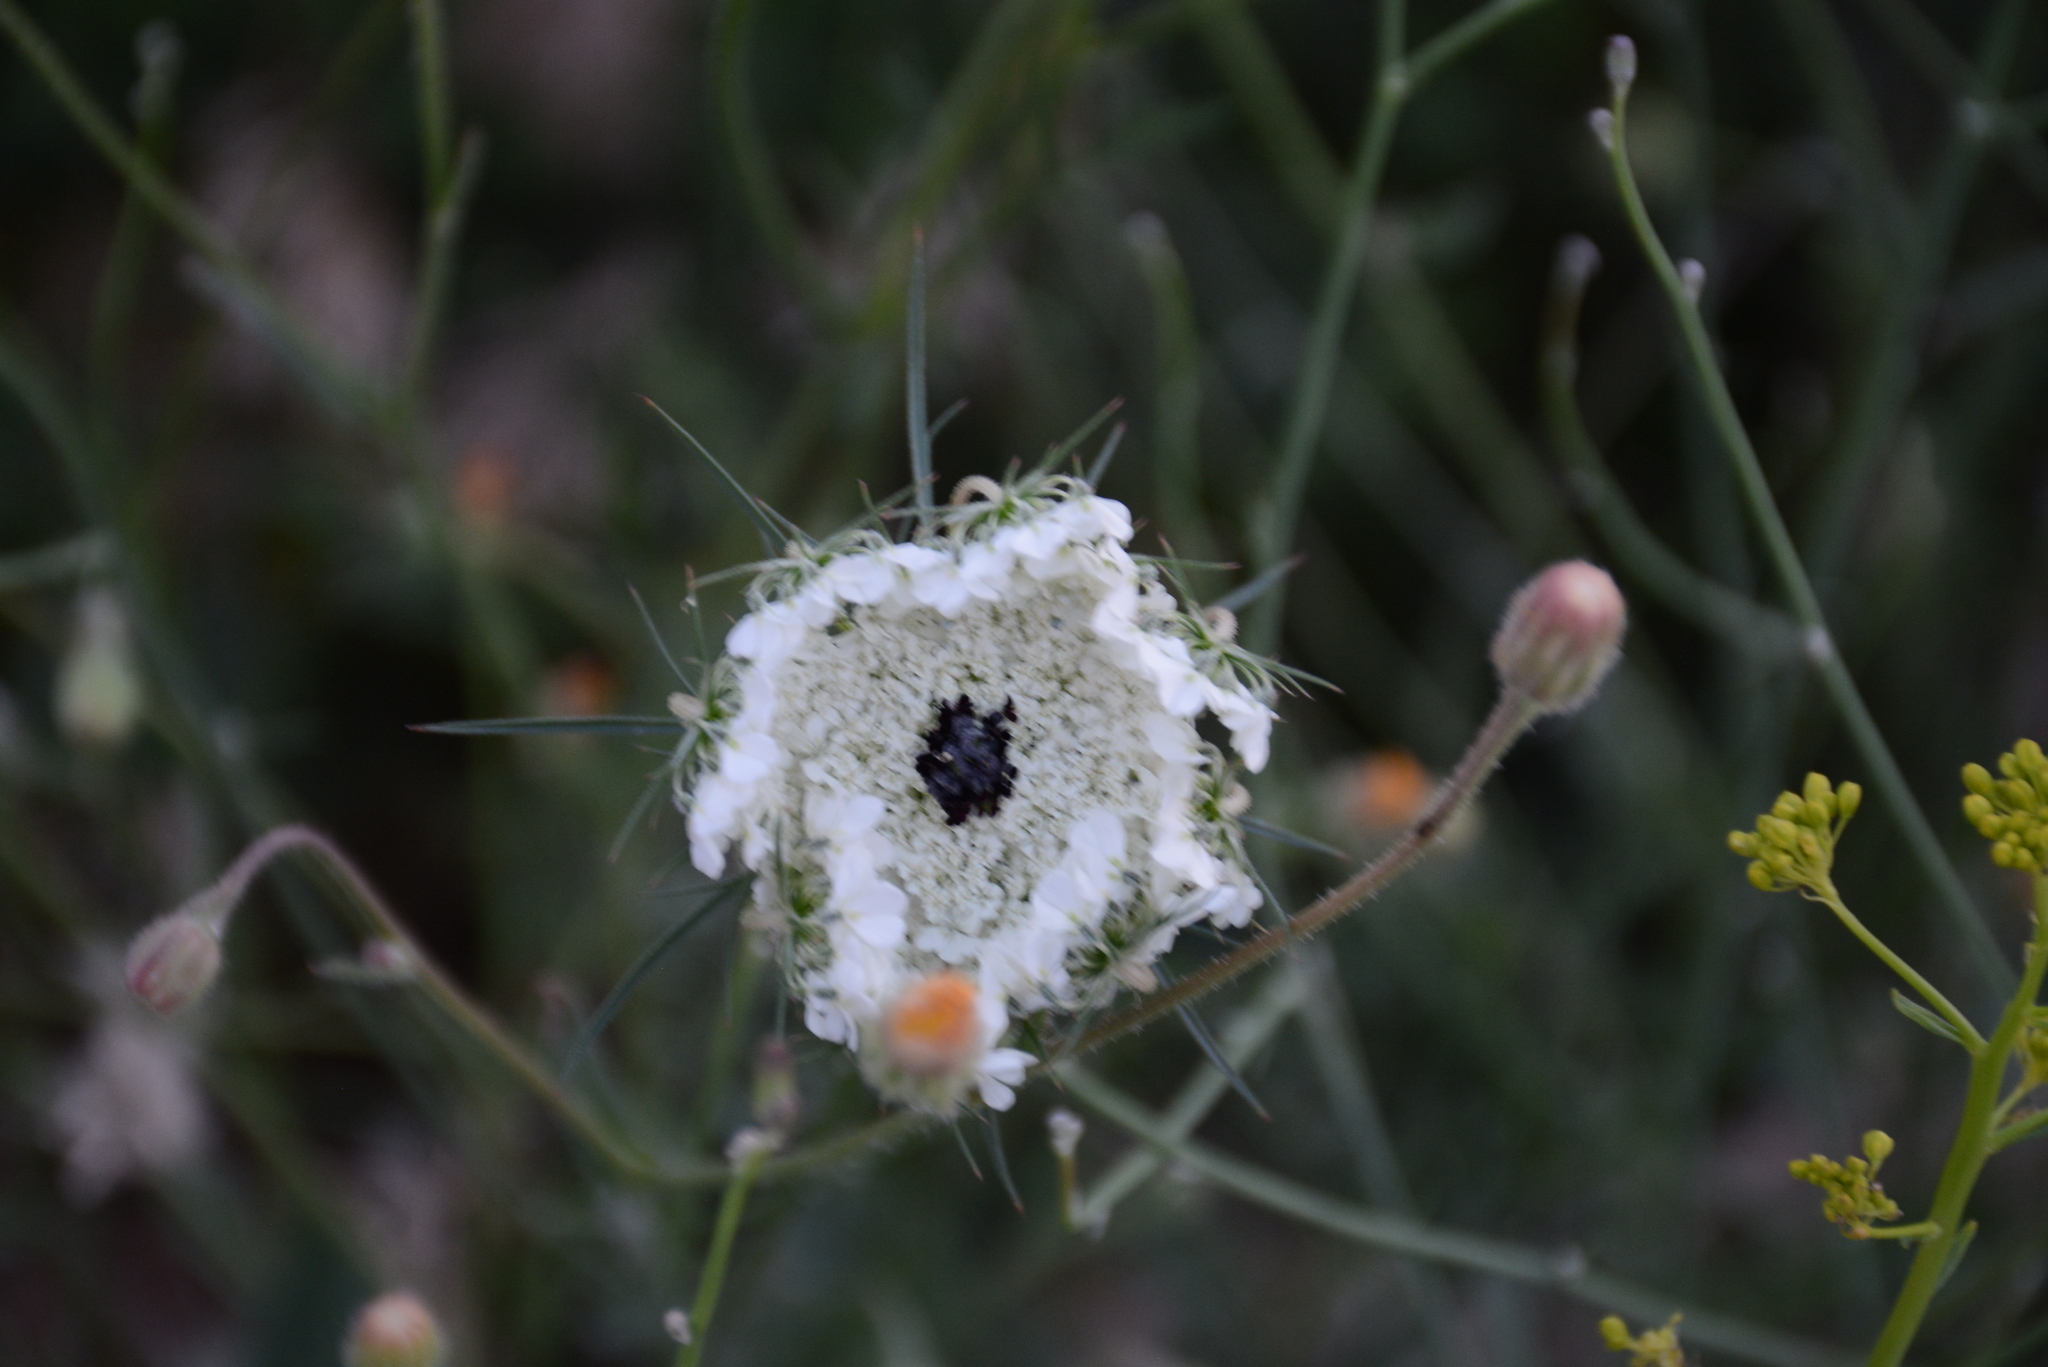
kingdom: Plantae
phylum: Tracheophyta
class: Magnoliopsida
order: Apiales
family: Apiaceae
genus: Daucus
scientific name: Daucus carota
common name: Wild carrot
